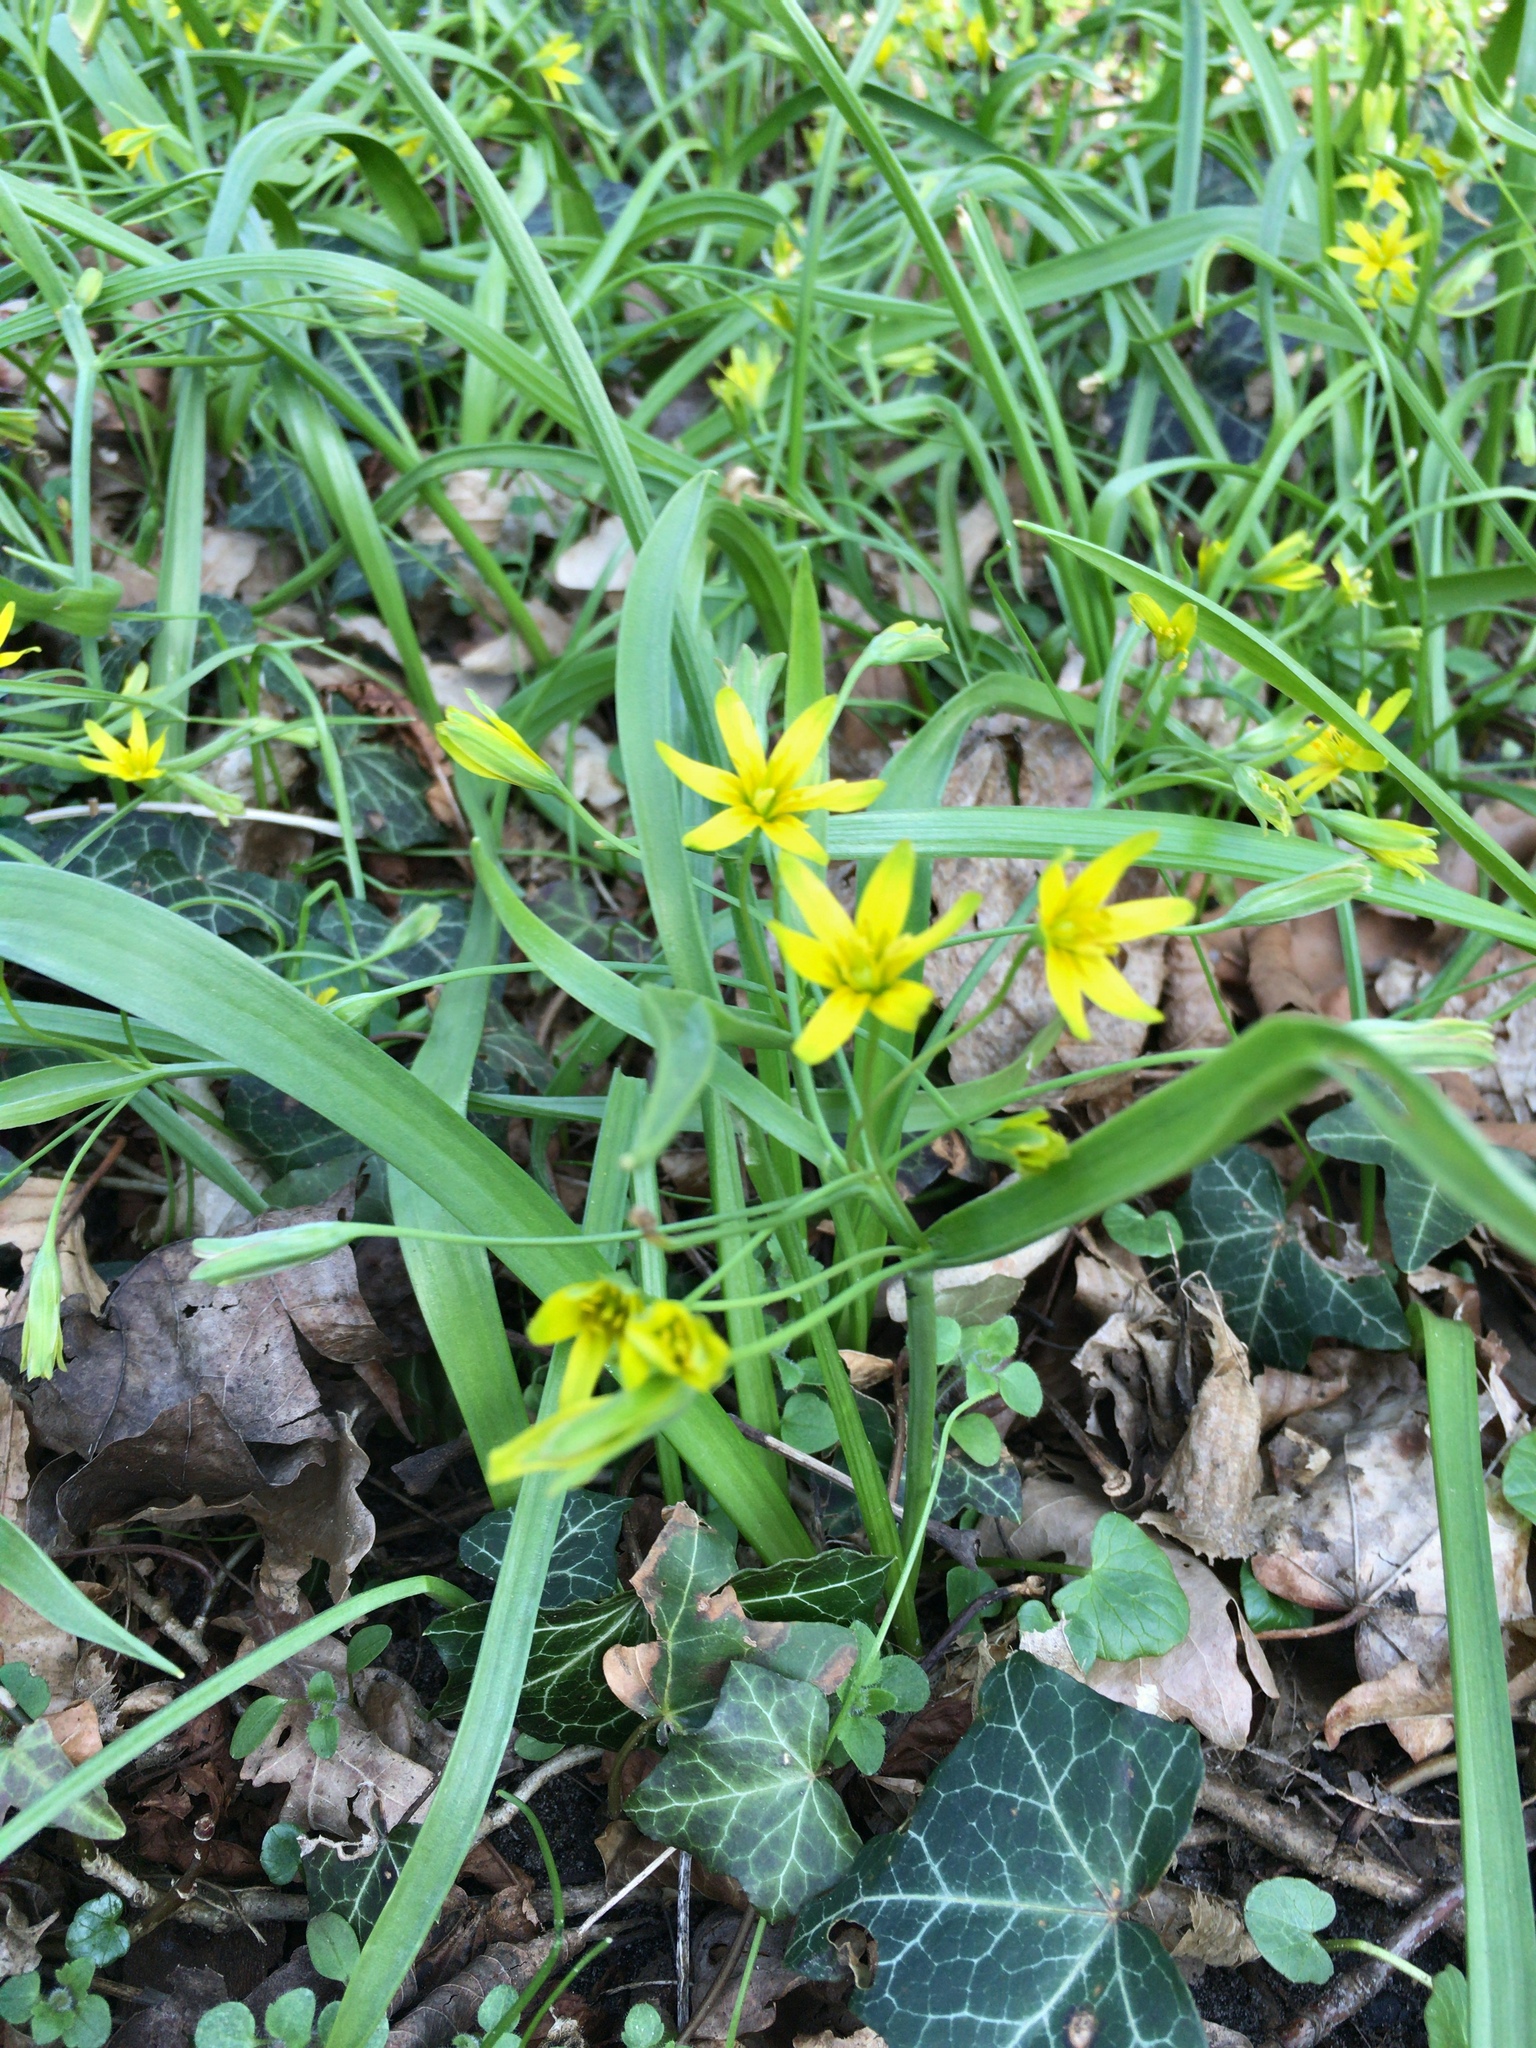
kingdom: Plantae
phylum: Tracheophyta
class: Liliopsida
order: Liliales
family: Liliaceae
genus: Gagea
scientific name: Gagea lutea
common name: Yellow star-of-bethlehem
